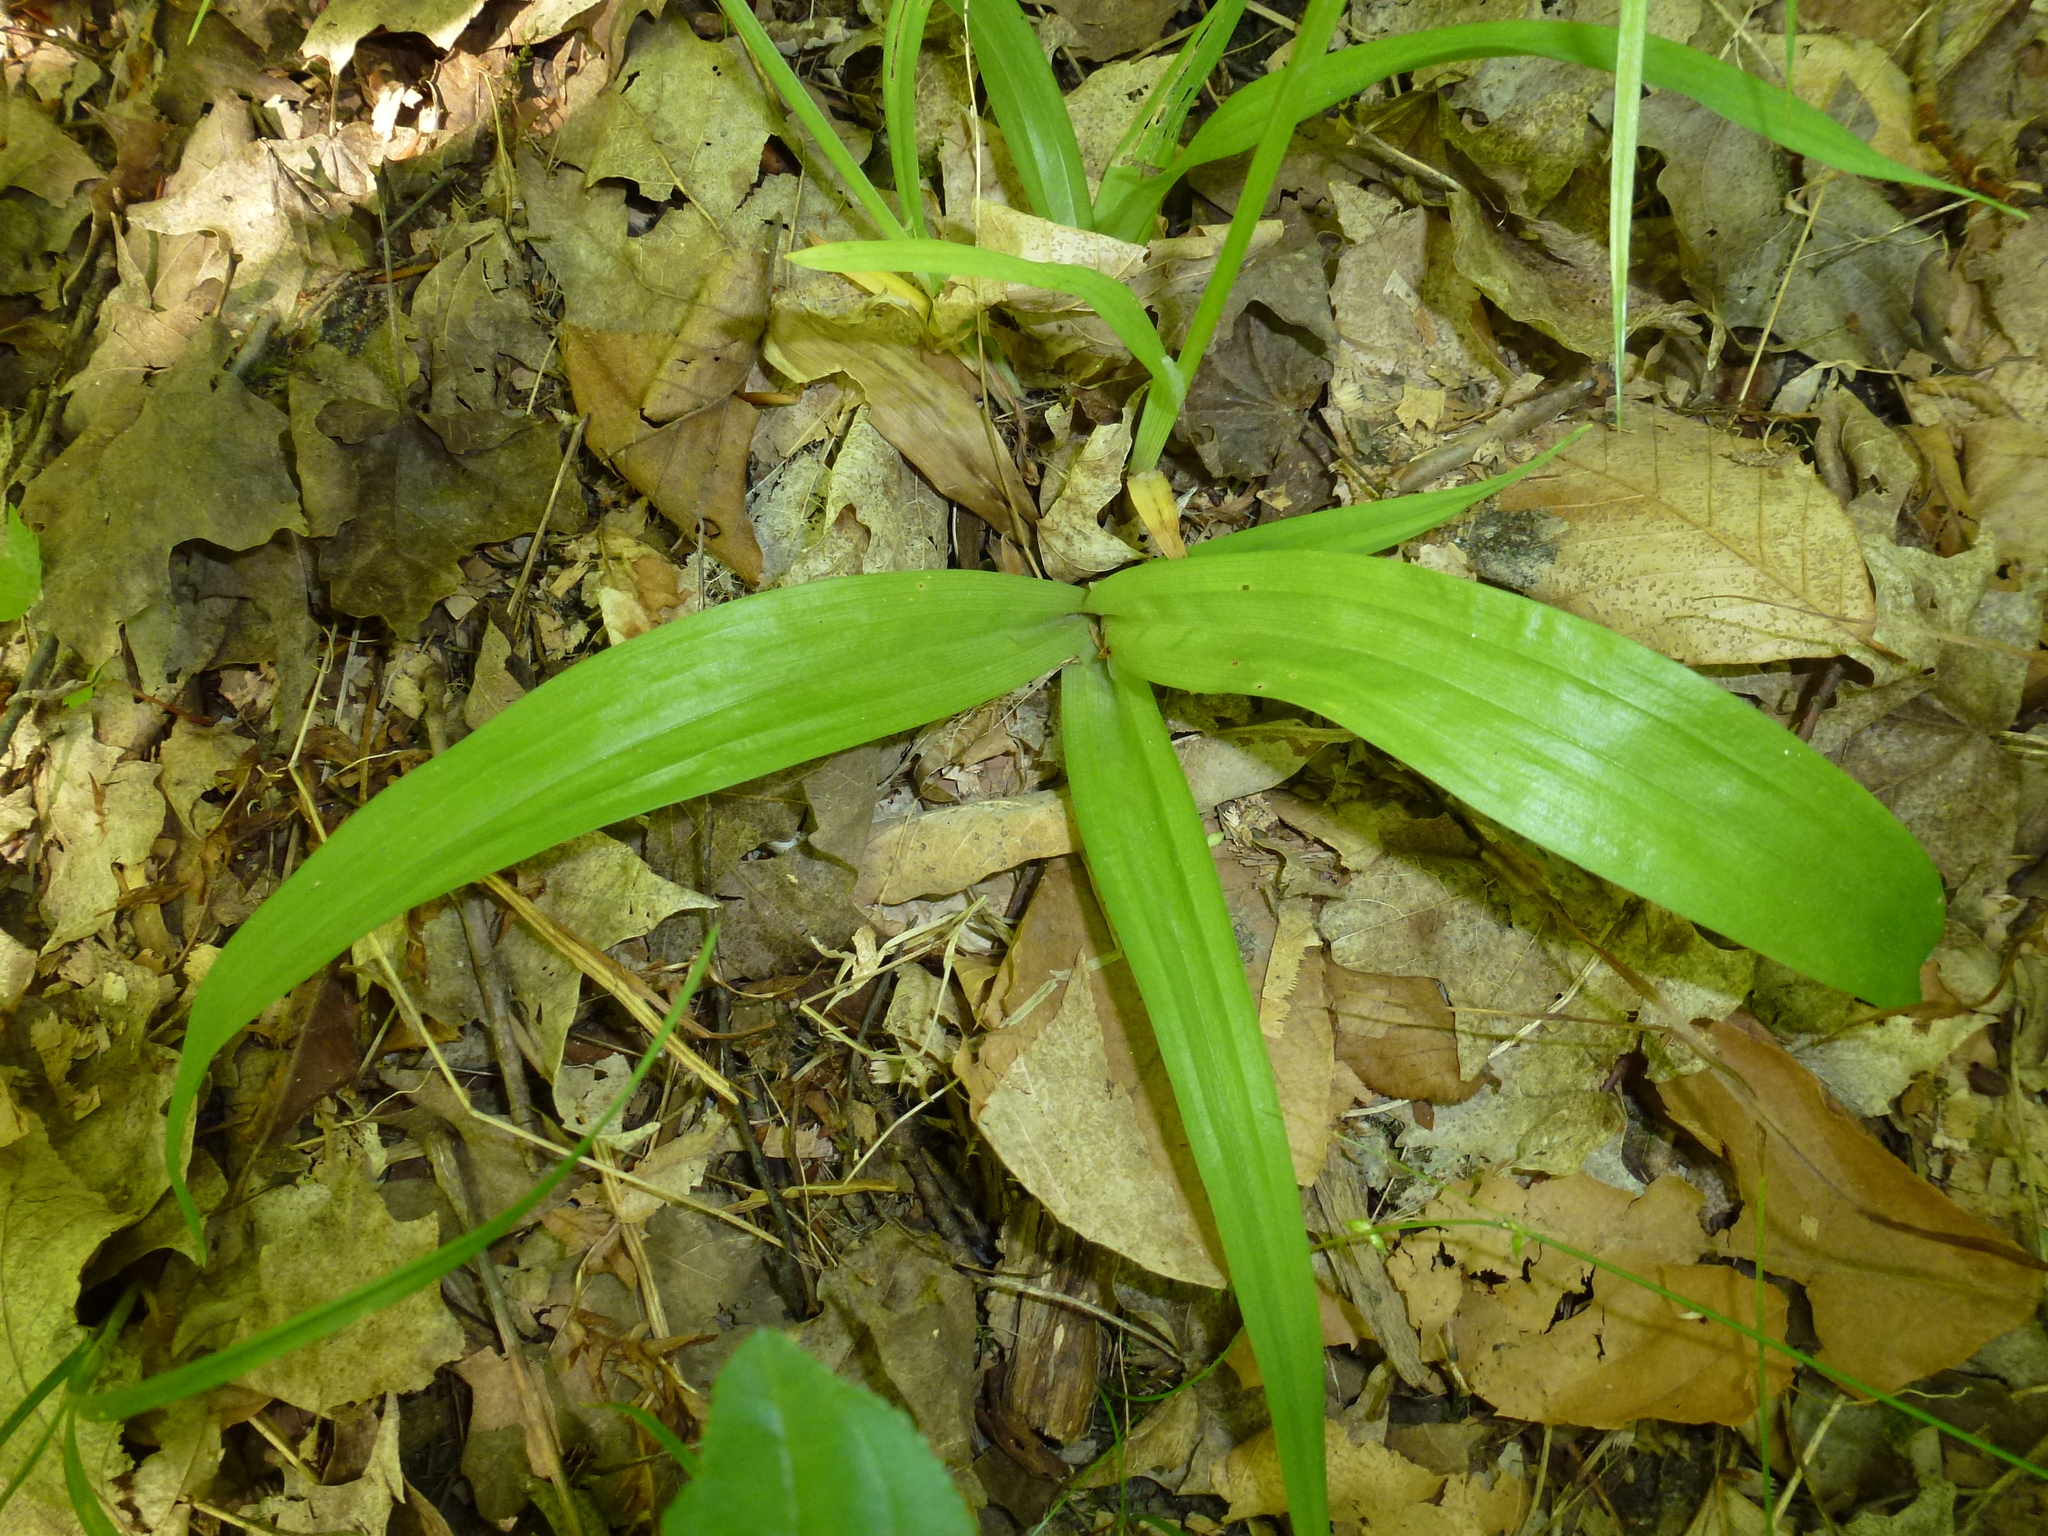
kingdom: Plantae
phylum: Tracheophyta
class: Liliopsida
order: Poales
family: Cyperaceae
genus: Carex
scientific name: Carex albursina
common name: Blunt-scale wood sedge
